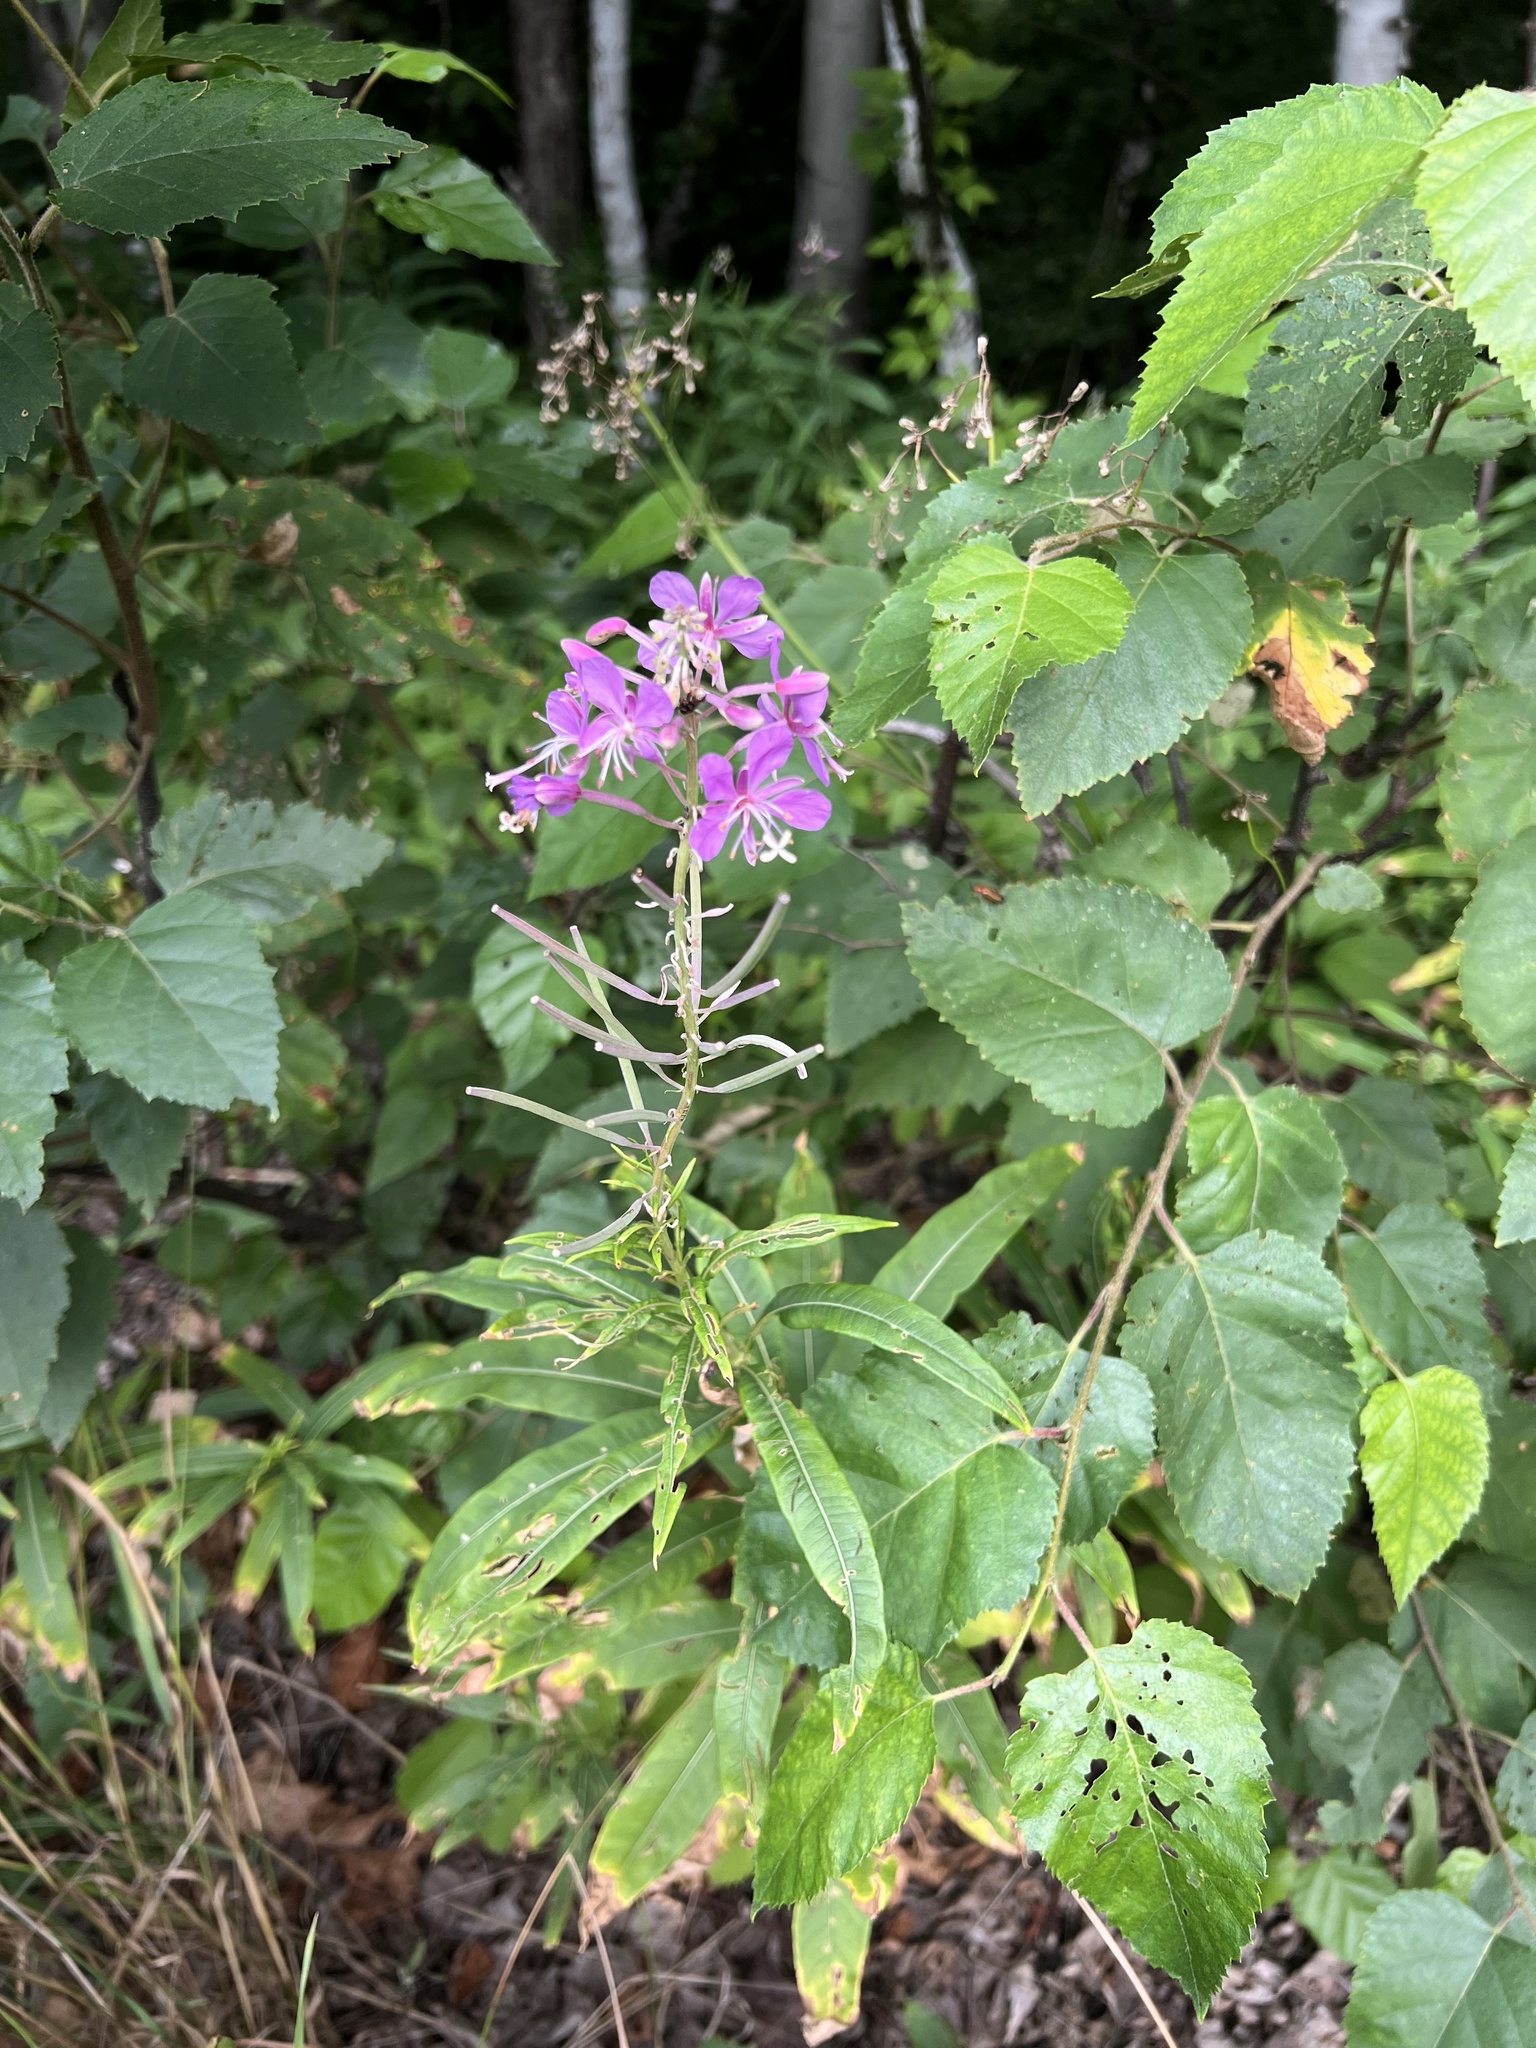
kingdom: Plantae
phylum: Tracheophyta
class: Magnoliopsida
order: Myrtales
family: Onagraceae
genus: Chamaenerion
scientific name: Chamaenerion angustifolium
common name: Fireweed
